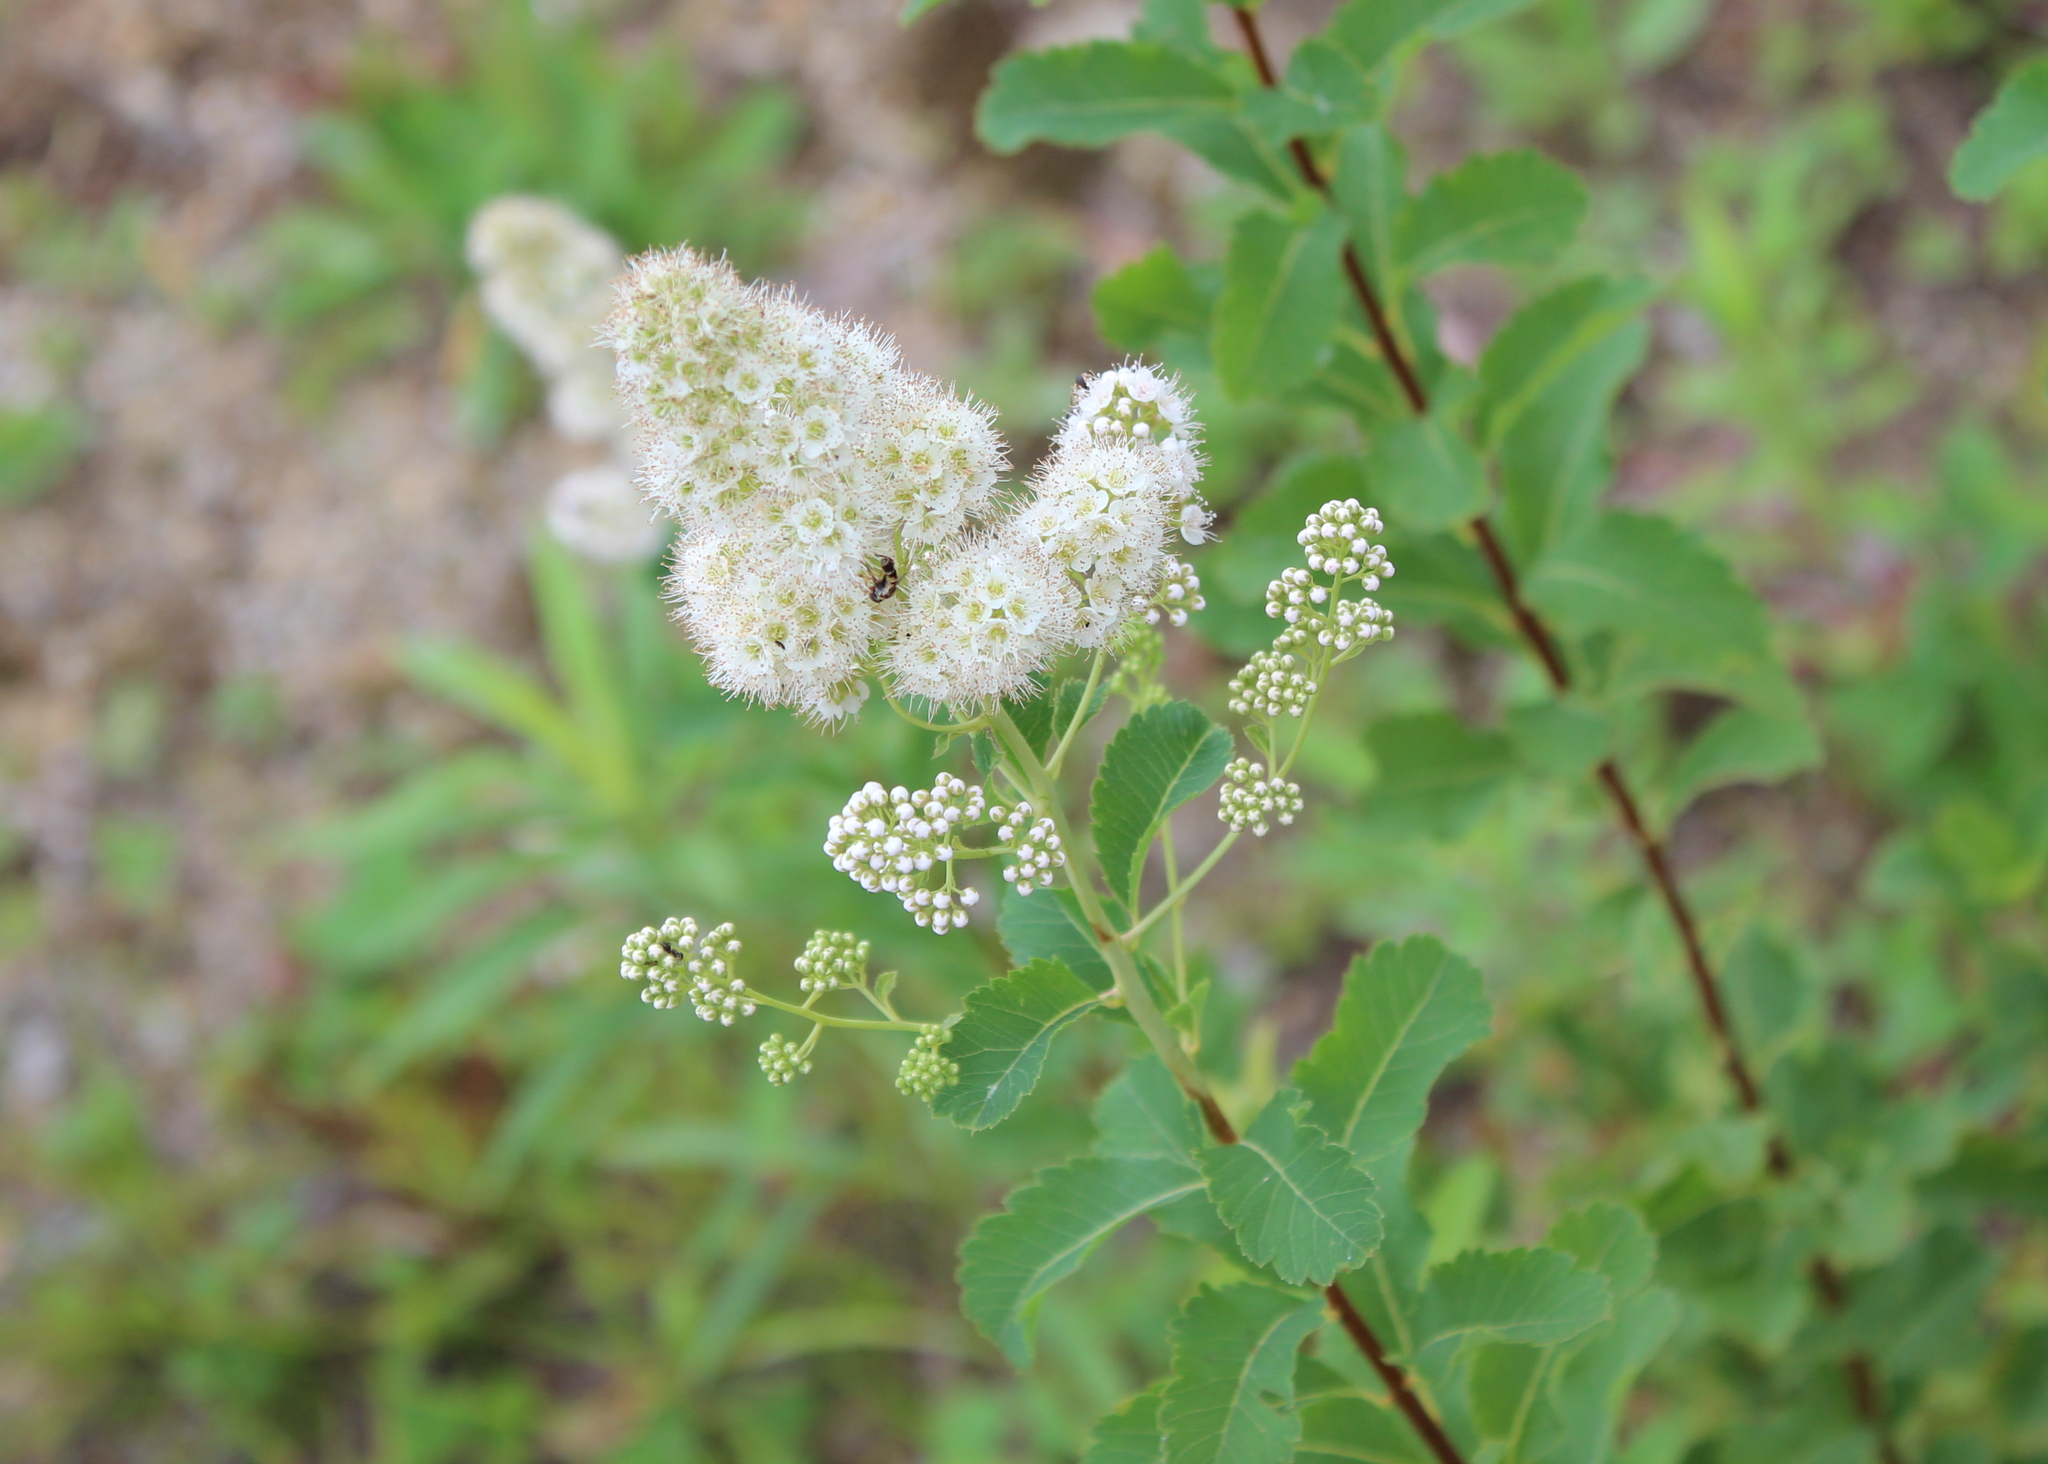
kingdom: Plantae
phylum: Tracheophyta
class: Magnoliopsida
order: Rosales
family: Rosaceae
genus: Spiraea
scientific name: Spiraea alba
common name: Pale bridewort
